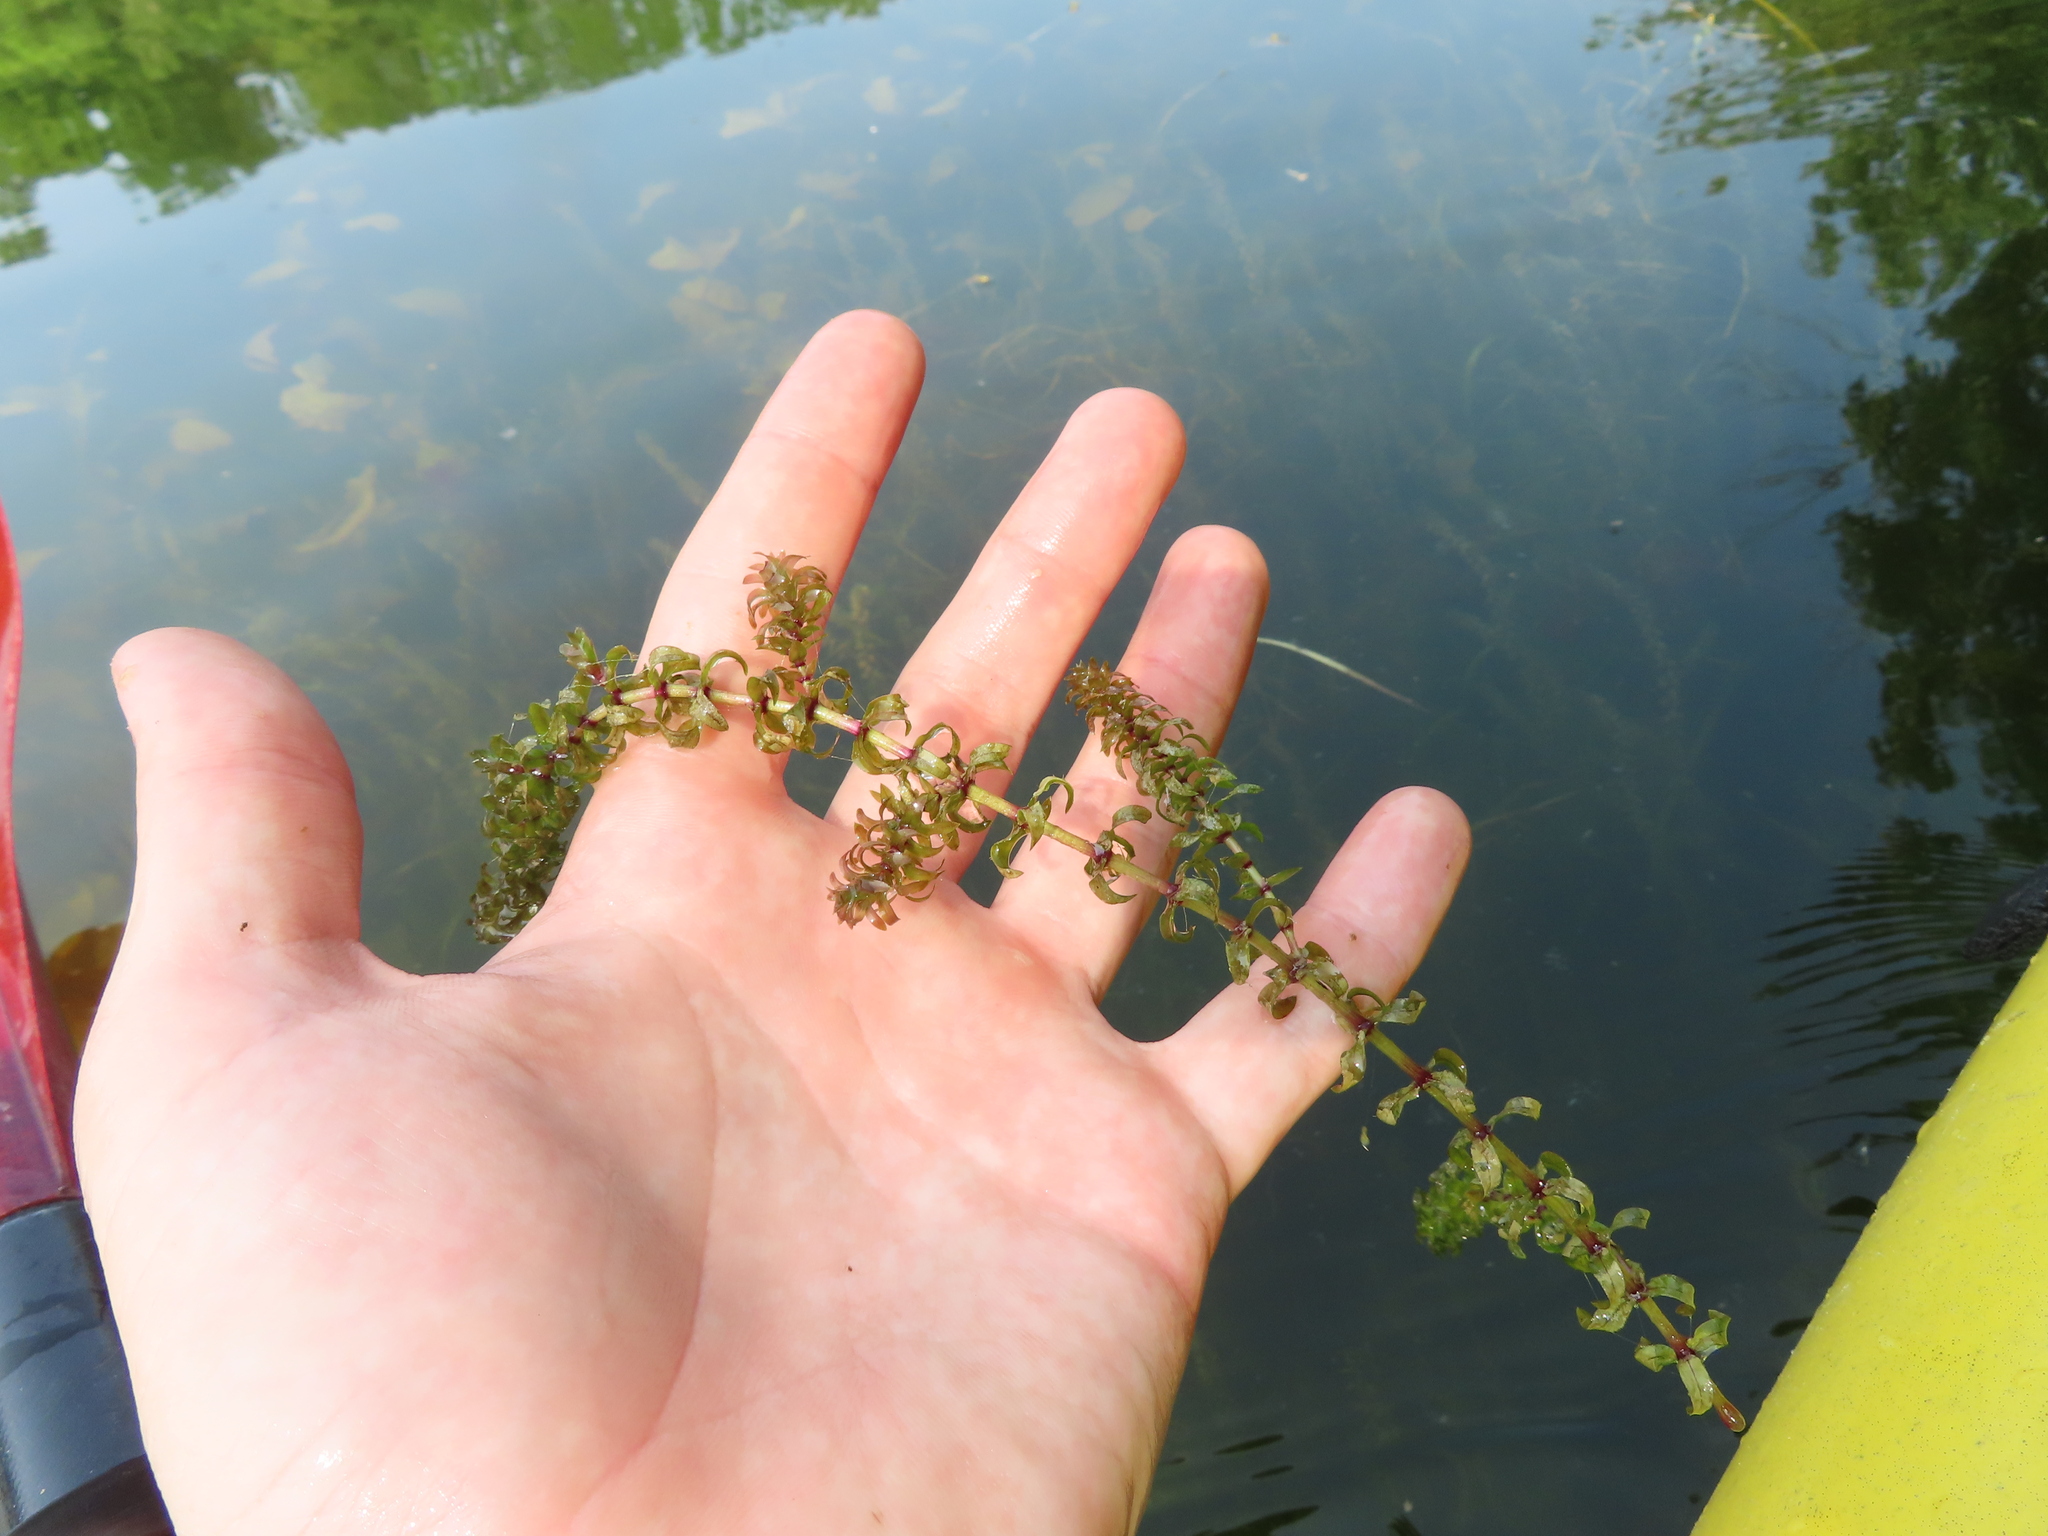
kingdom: Plantae
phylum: Tracheophyta
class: Liliopsida
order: Alismatales
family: Hydrocharitaceae
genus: Elodea
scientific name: Elodea canadensis
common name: Canadian waterweed
